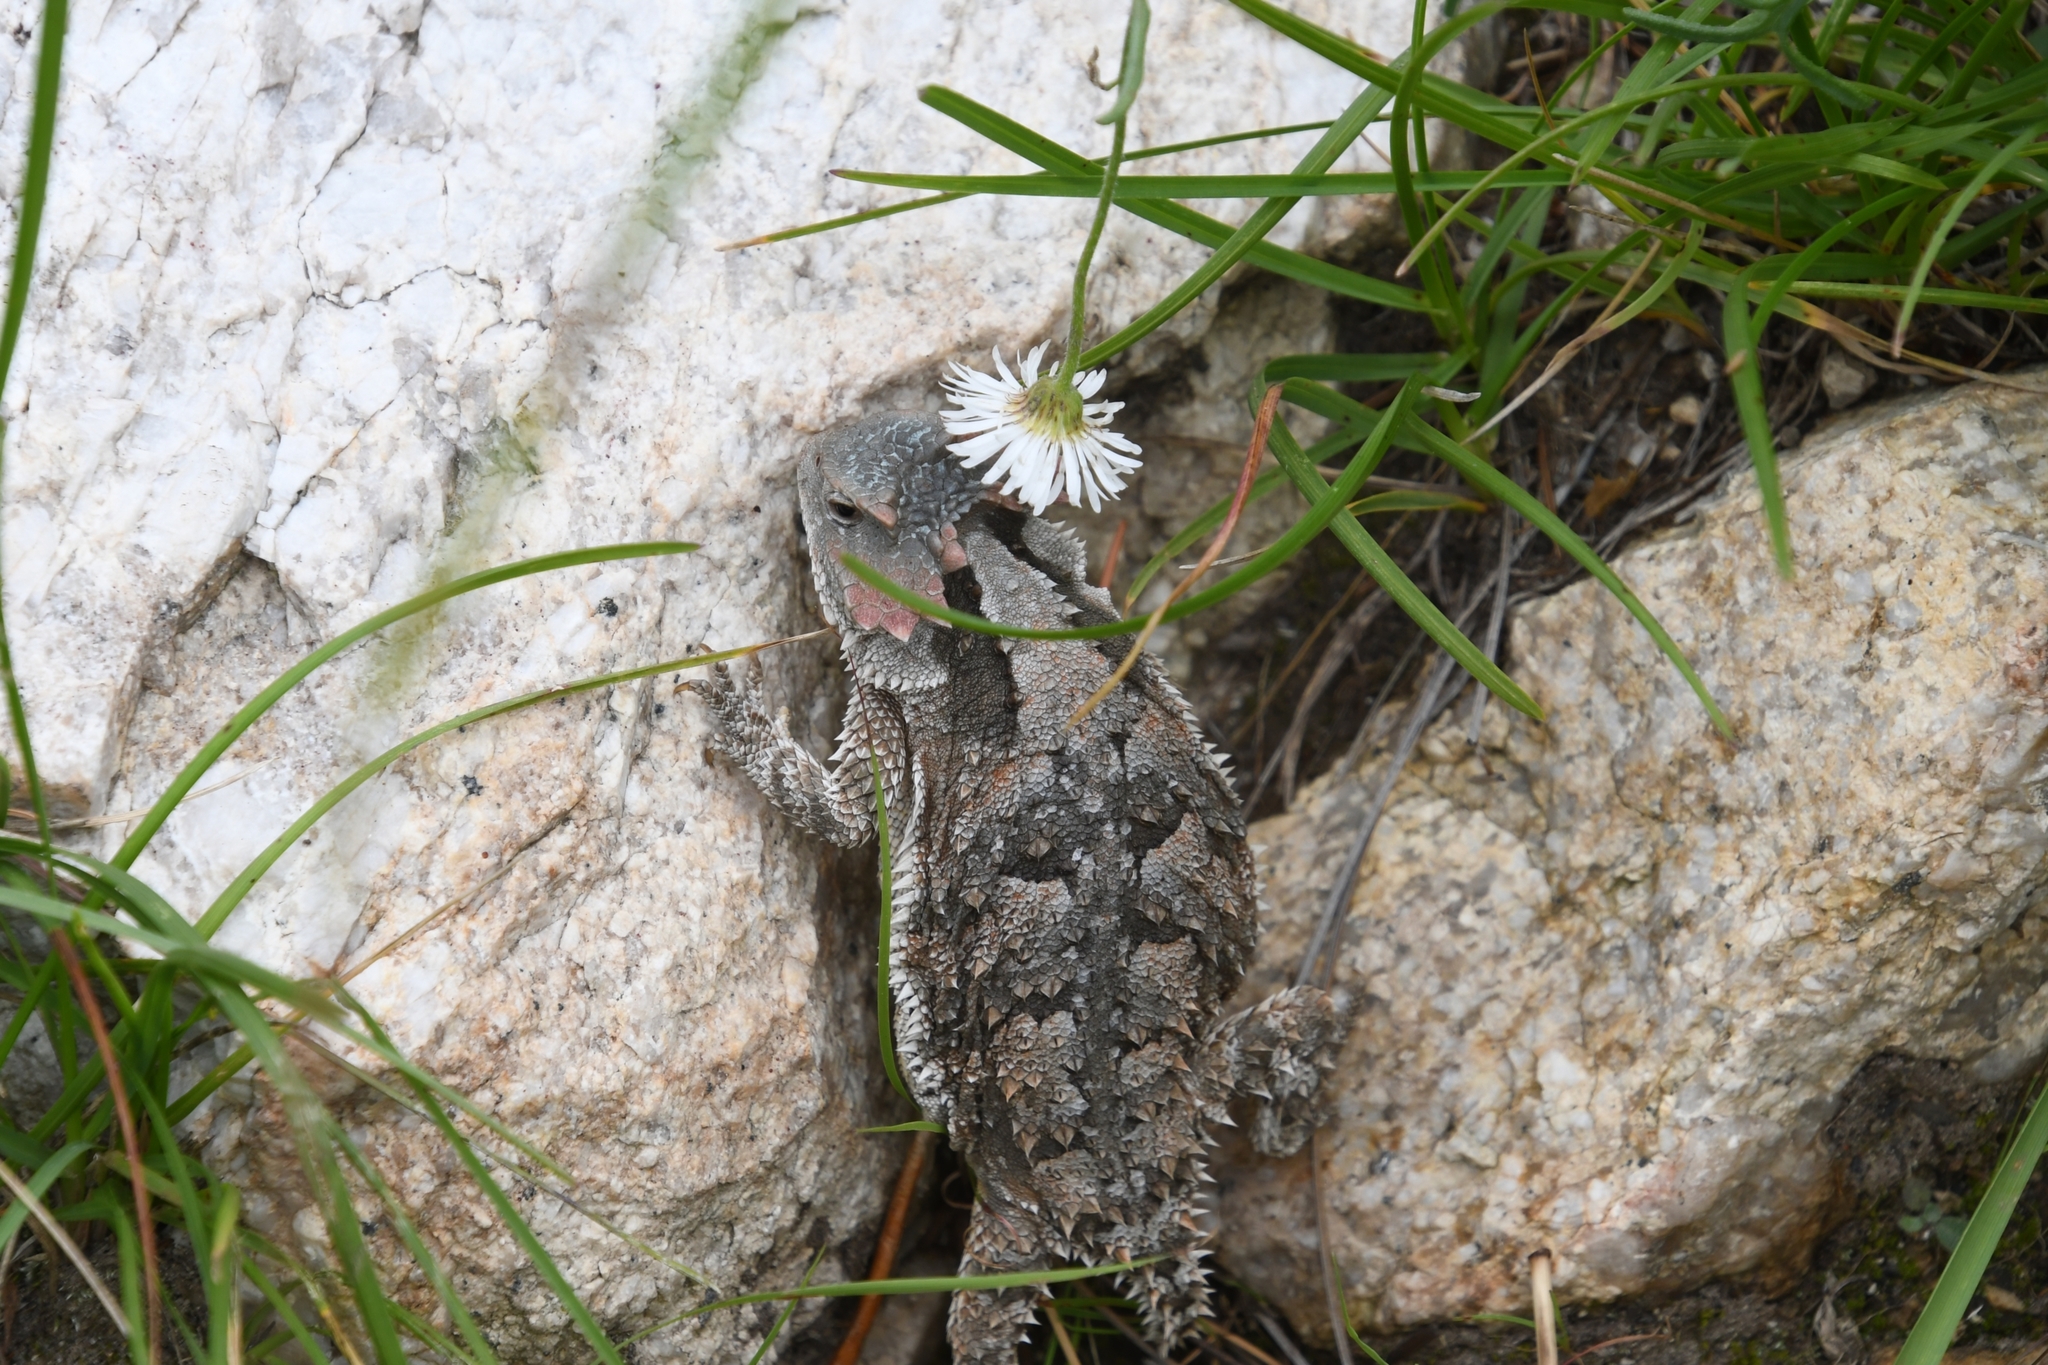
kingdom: Animalia
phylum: Chordata
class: Squamata
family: Phrynosomatidae
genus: Phrynosoma
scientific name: Phrynosoma hernandesi
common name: Greater short-horned lizard
